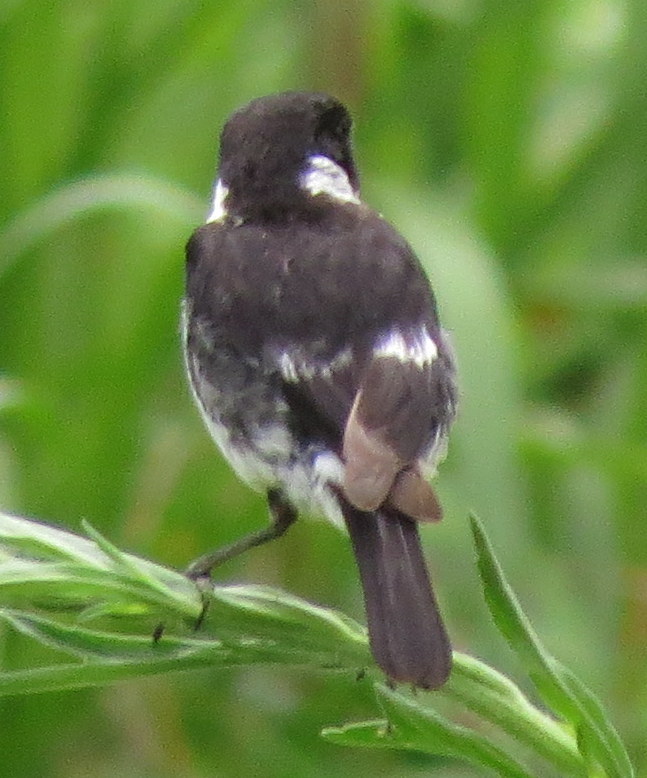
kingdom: Animalia
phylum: Chordata
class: Aves
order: Passeriformes
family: Muscicapidae
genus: Saxicola
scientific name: Saxicola torquatus
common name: African stonechat
